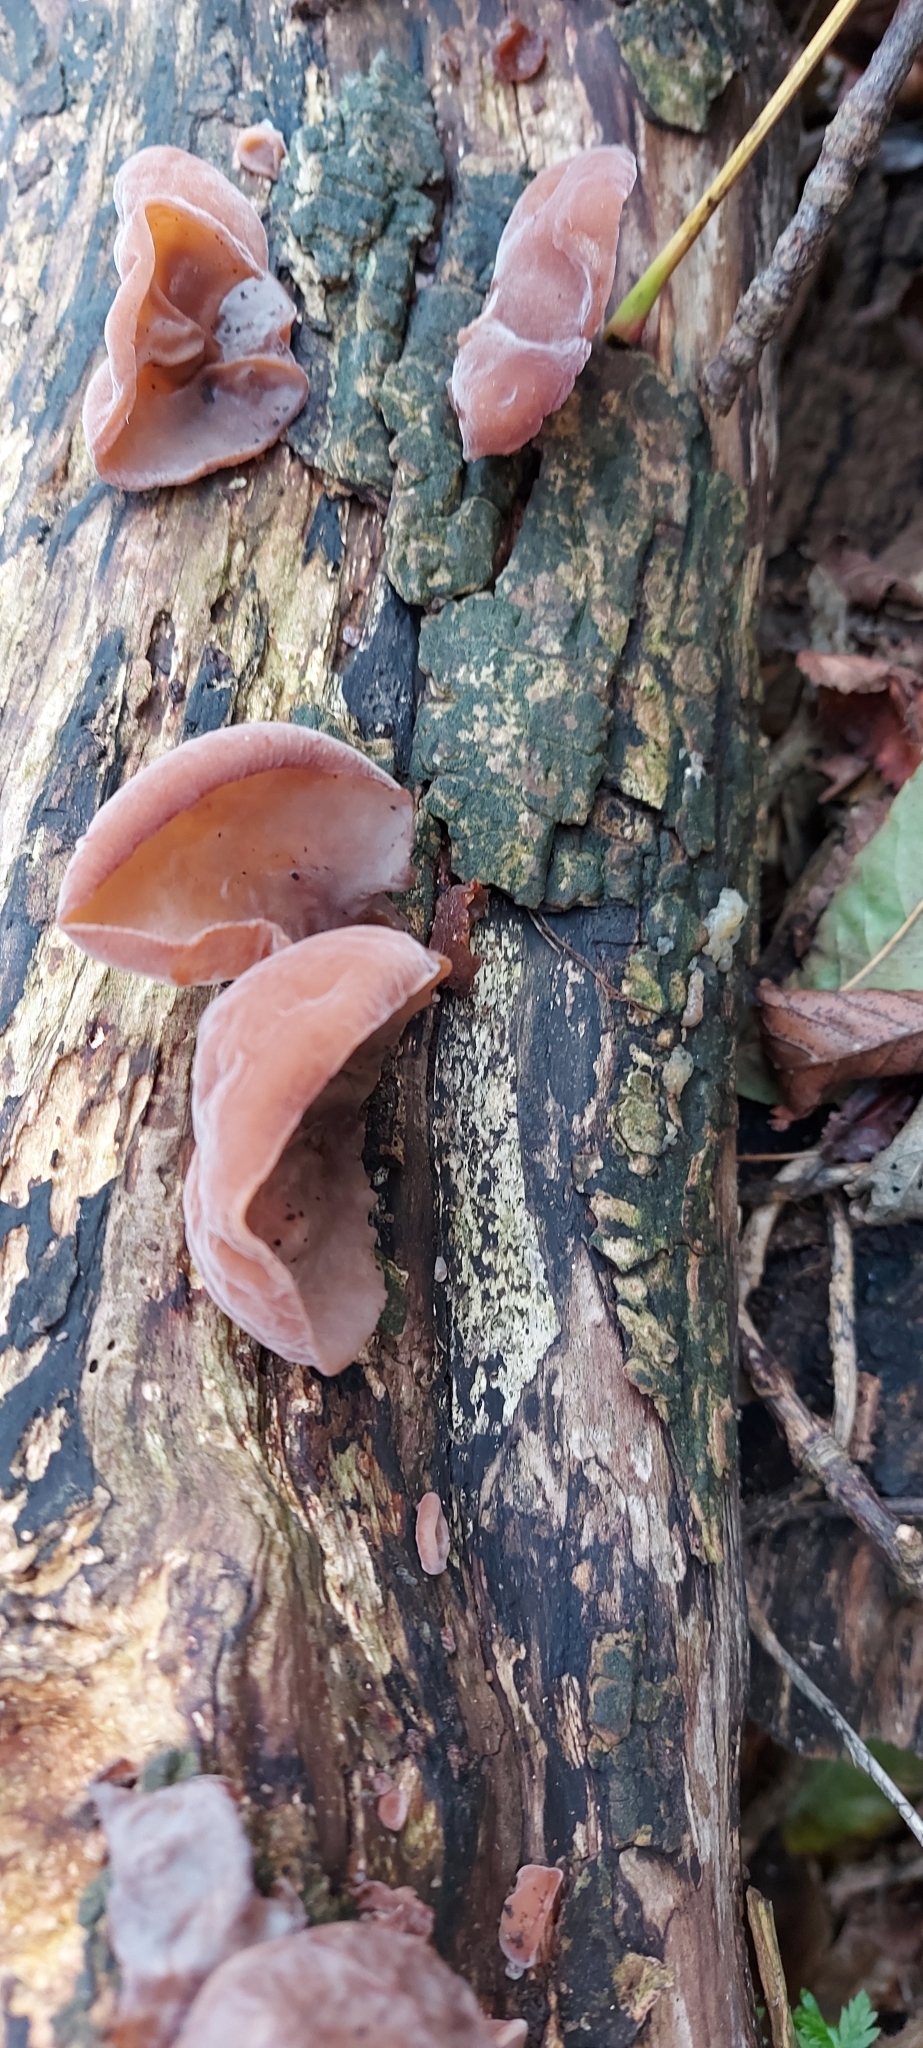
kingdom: Fungi
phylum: Basidiomycota
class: Agaricomycetes
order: Auriculariales
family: Auriculariaceae
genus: Auricularia
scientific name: Auricularia auricula-judae
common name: Jelly ear
